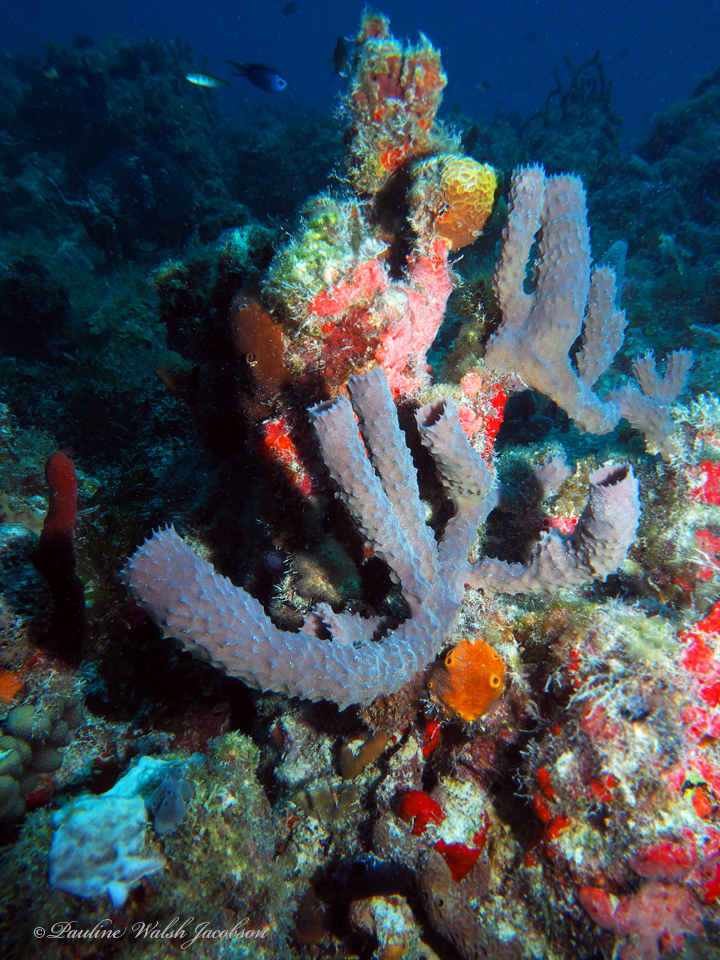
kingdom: Animalia
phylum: Porifera
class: Demospongiae
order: Haplosclerida
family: Callyspongiidae
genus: Callyspongia
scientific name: Callyspongia aculeata
